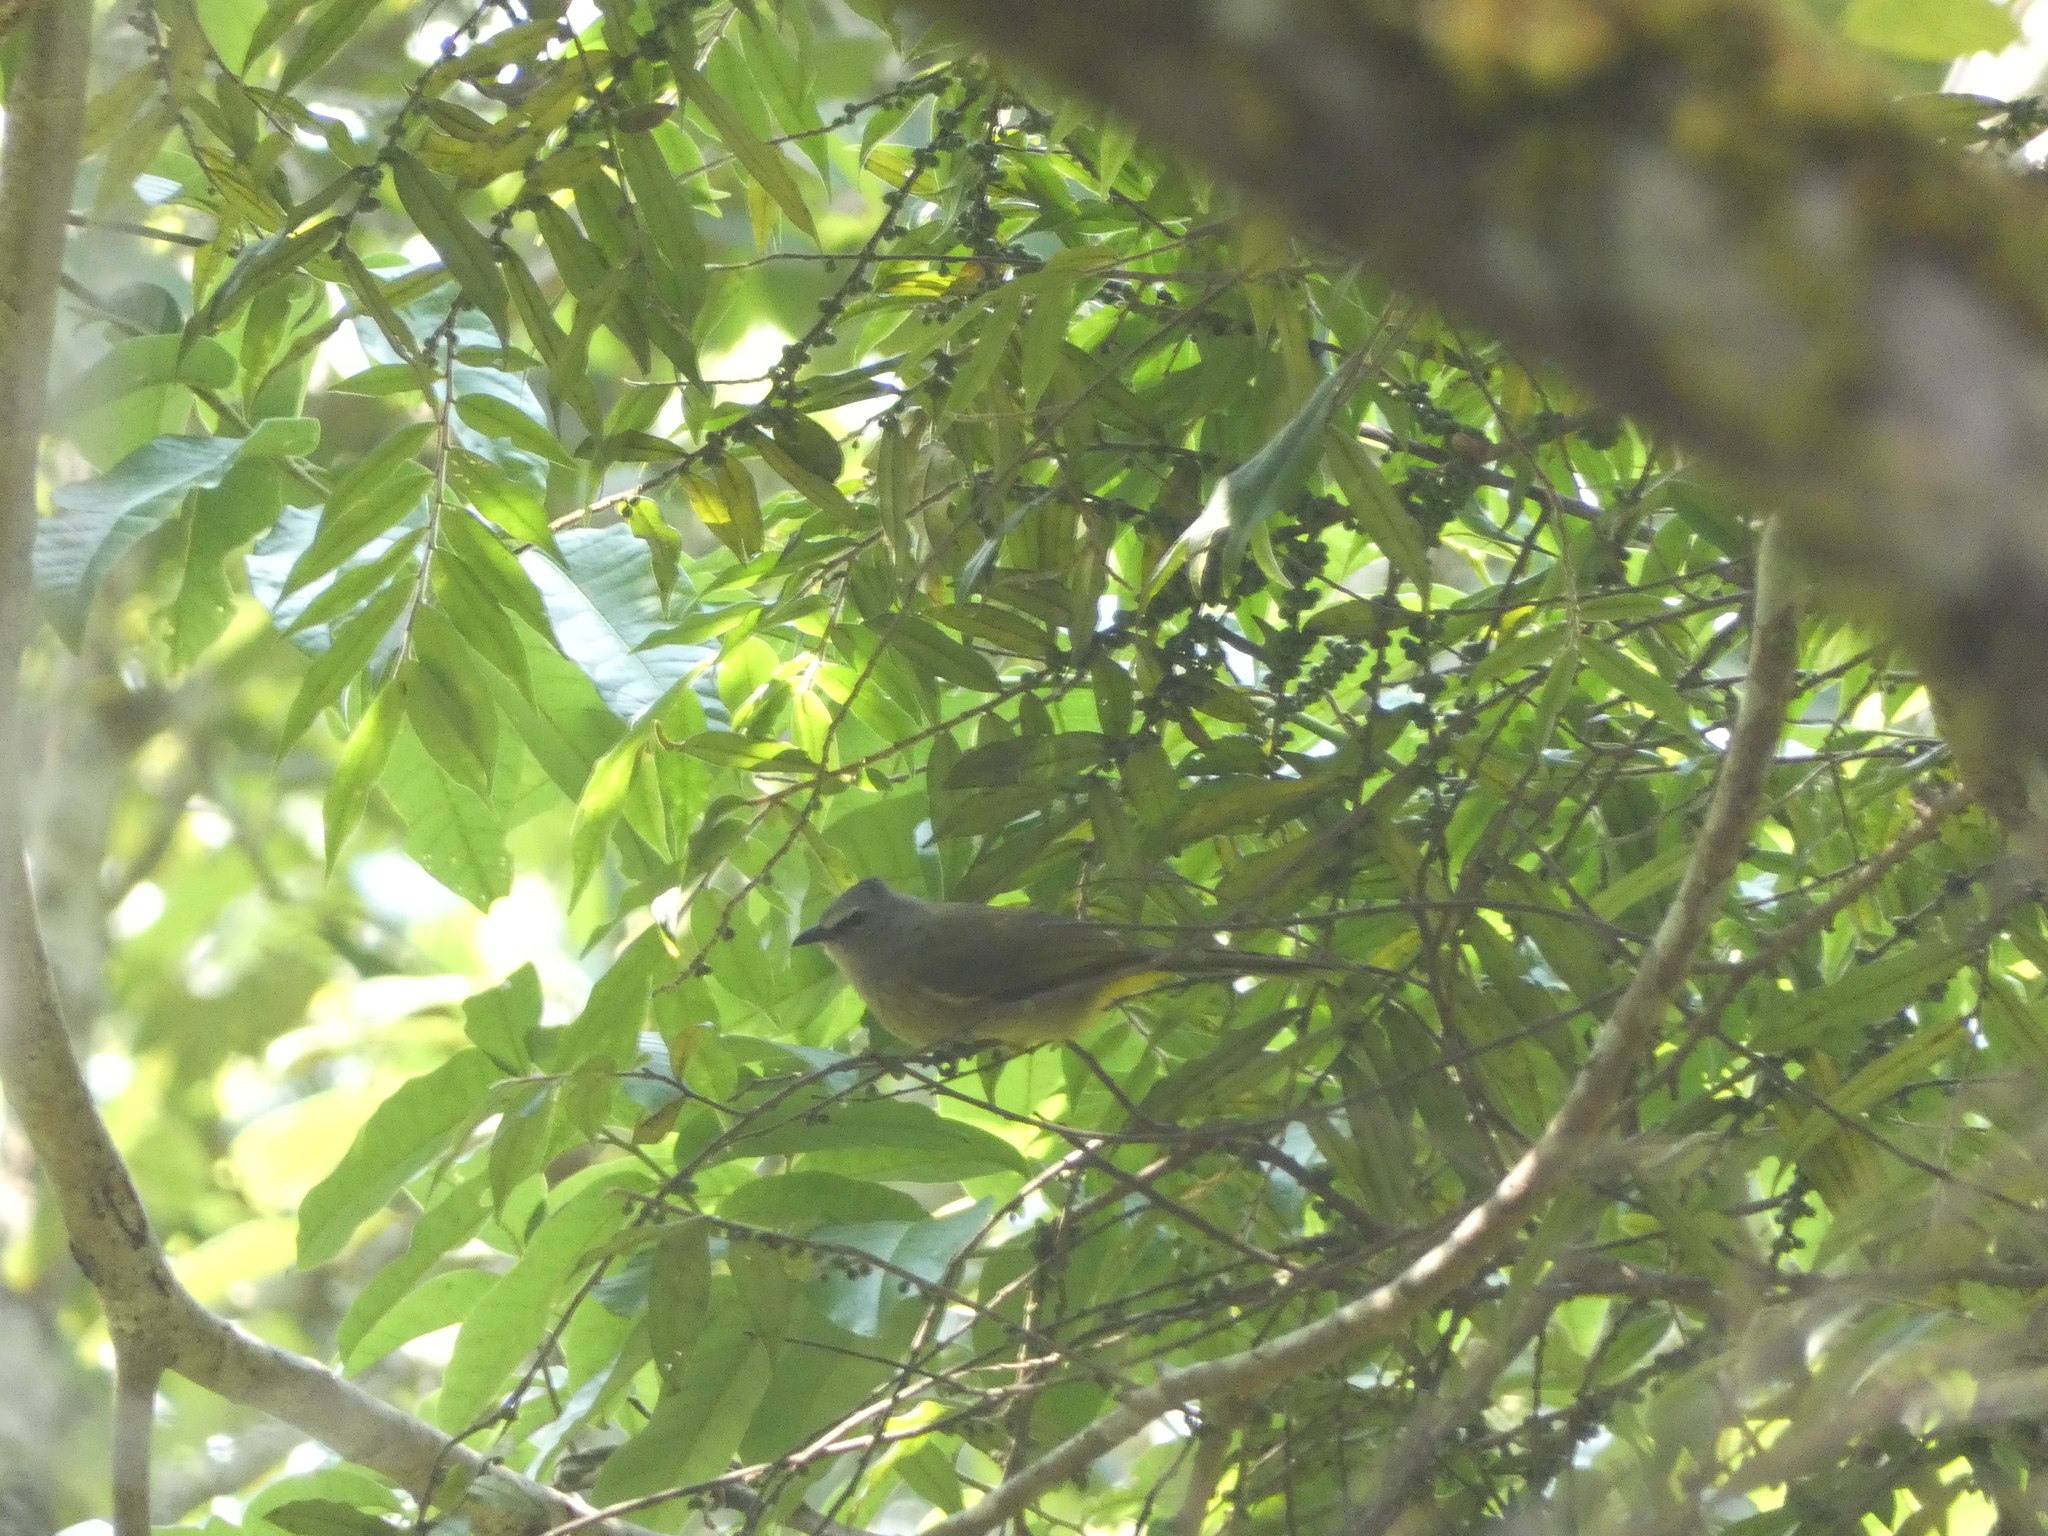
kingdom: Animalia
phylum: Chordata
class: Aves
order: Passeriformes
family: Pycnonotidae
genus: Pycnonotus
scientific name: Pycnonotus flavescens
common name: Flavescent bulbul
